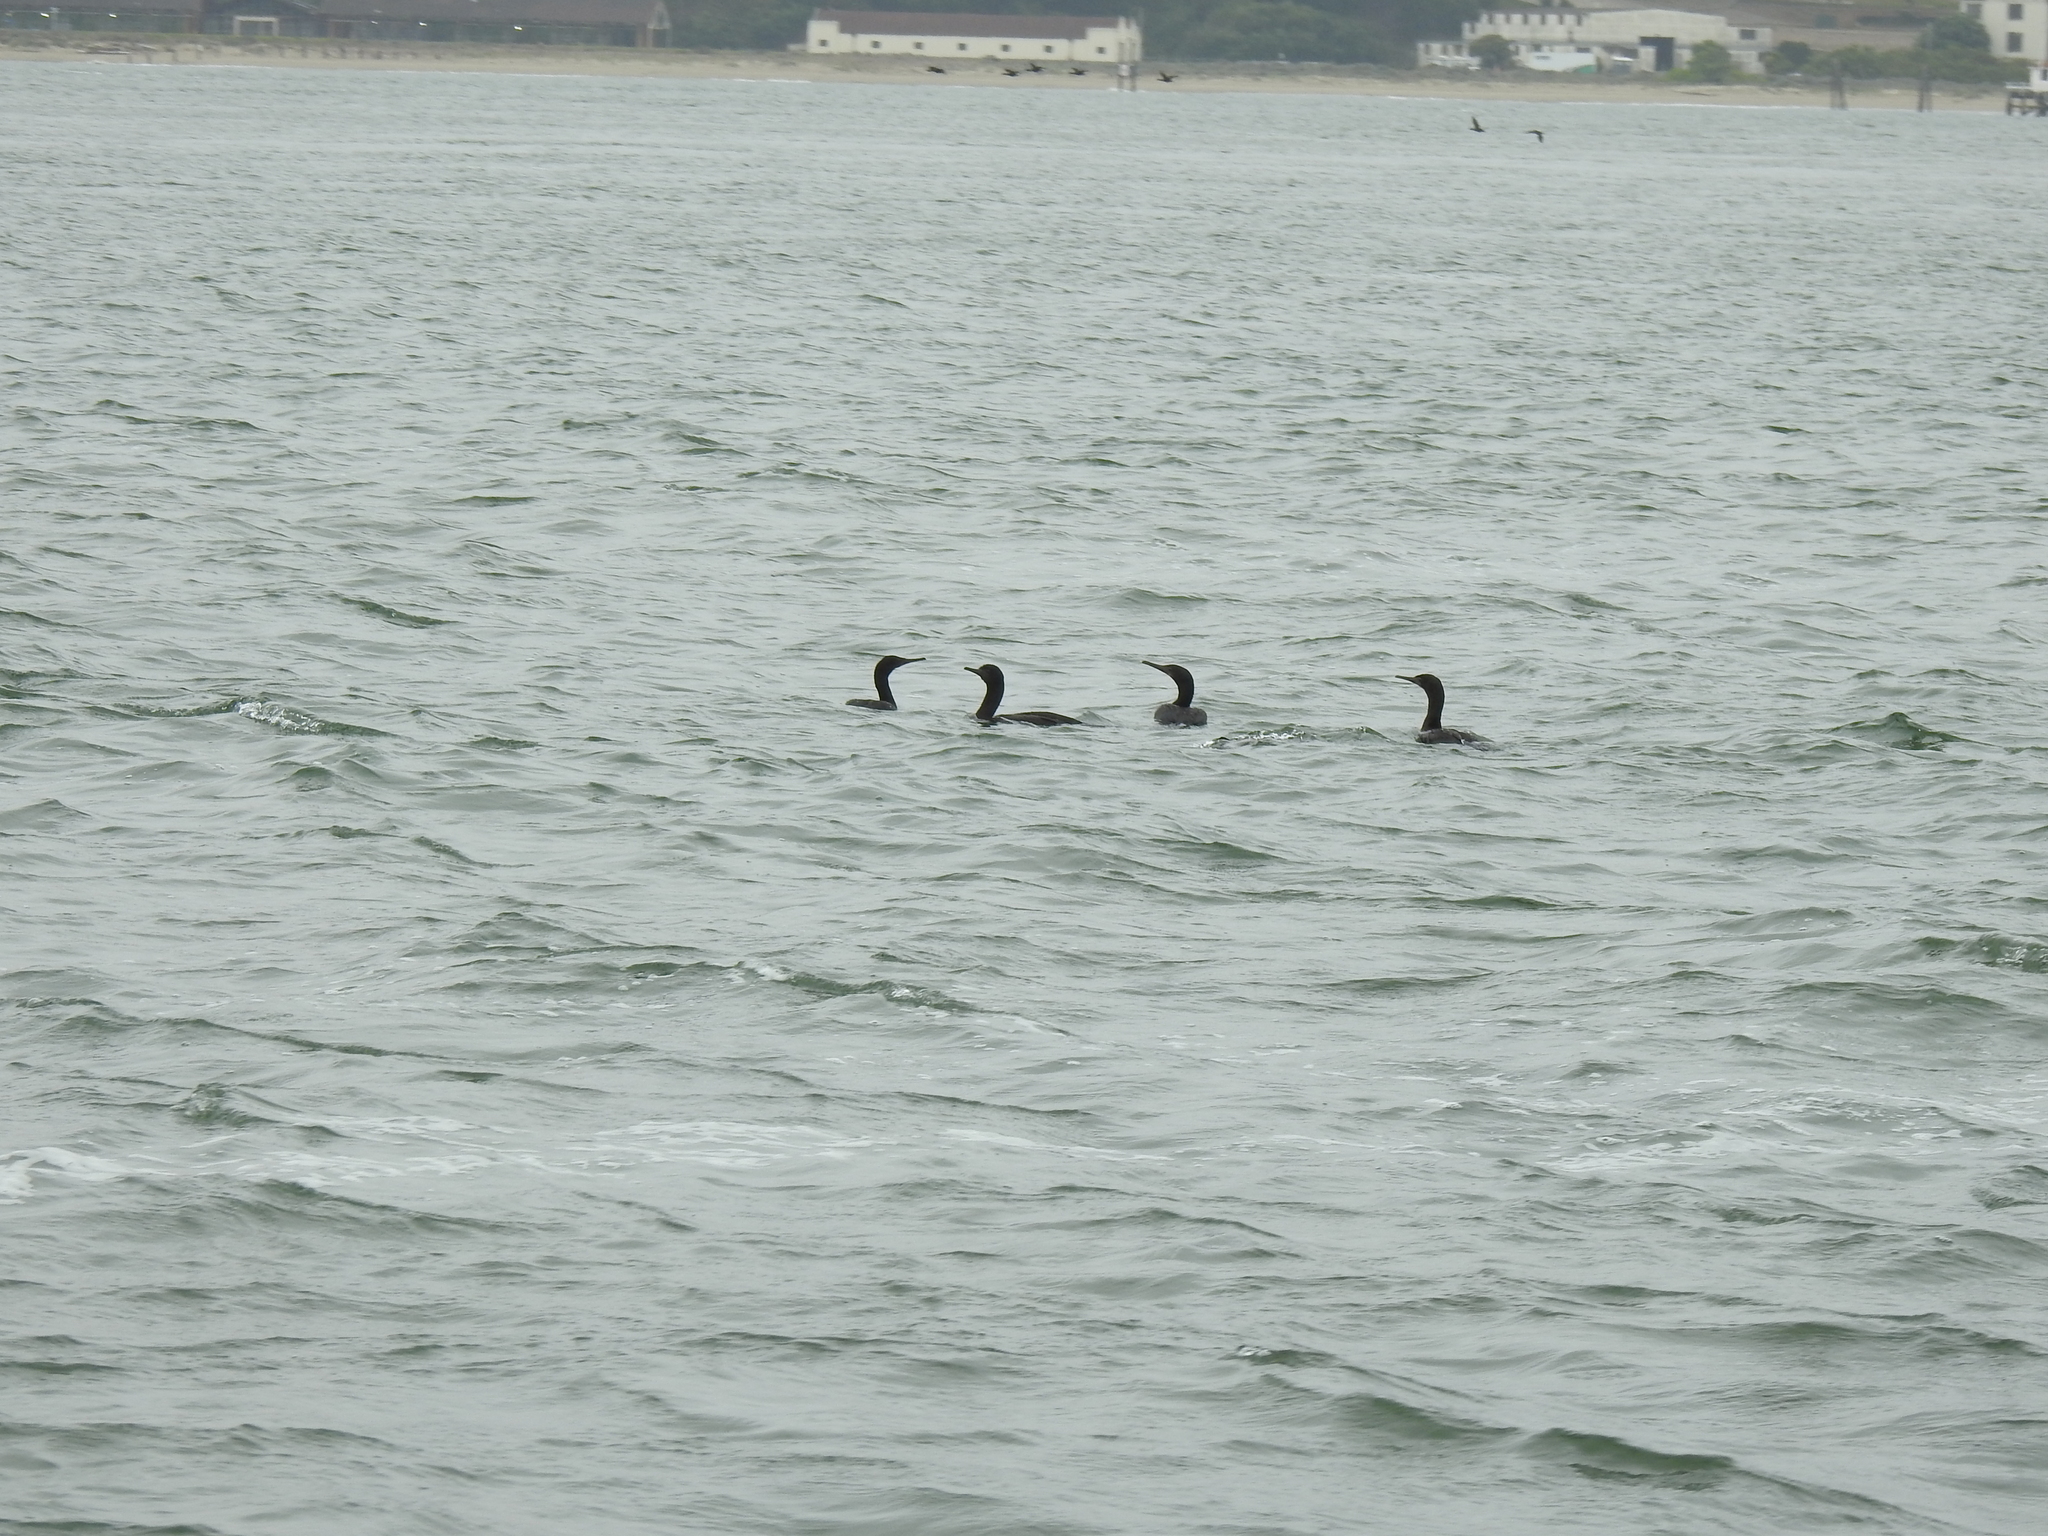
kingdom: Animalia
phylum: Chordata
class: Aves
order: Suliformes
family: Phalacrocoracidae
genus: Urile
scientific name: Urile penicillatus
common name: Brandt's cormorant
